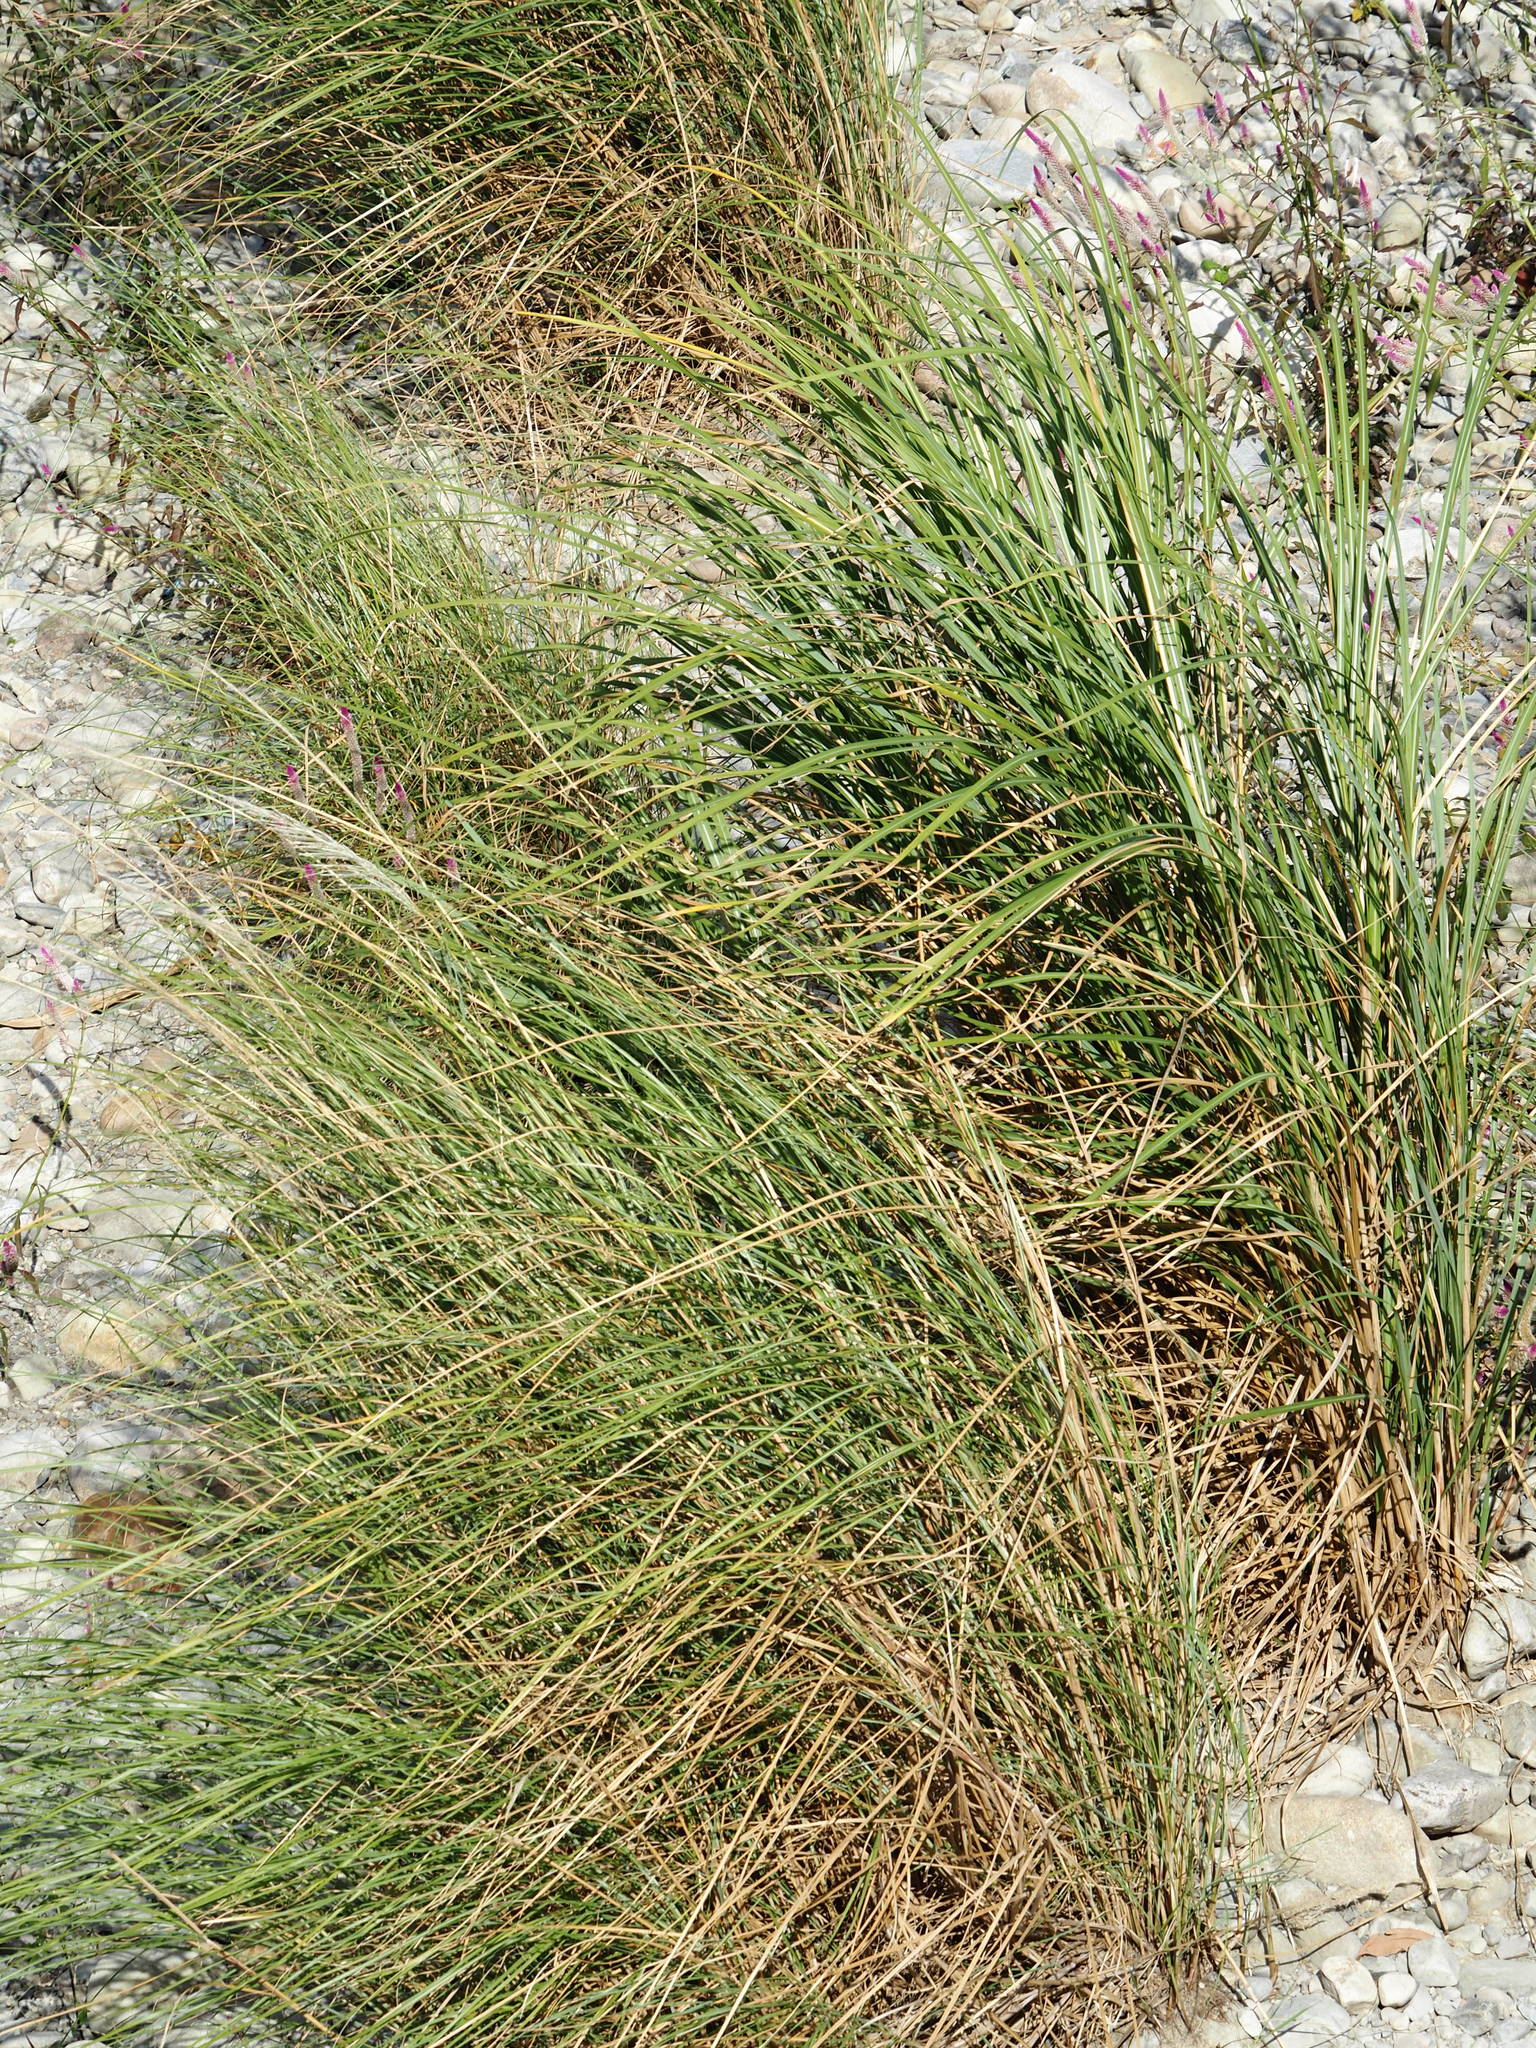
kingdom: Plantae
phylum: Tracheophyta
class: Liliopsida
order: Poales
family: Poaceae
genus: Saccharum
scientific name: Saccharum spontaneum
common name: Wild sugarcane
